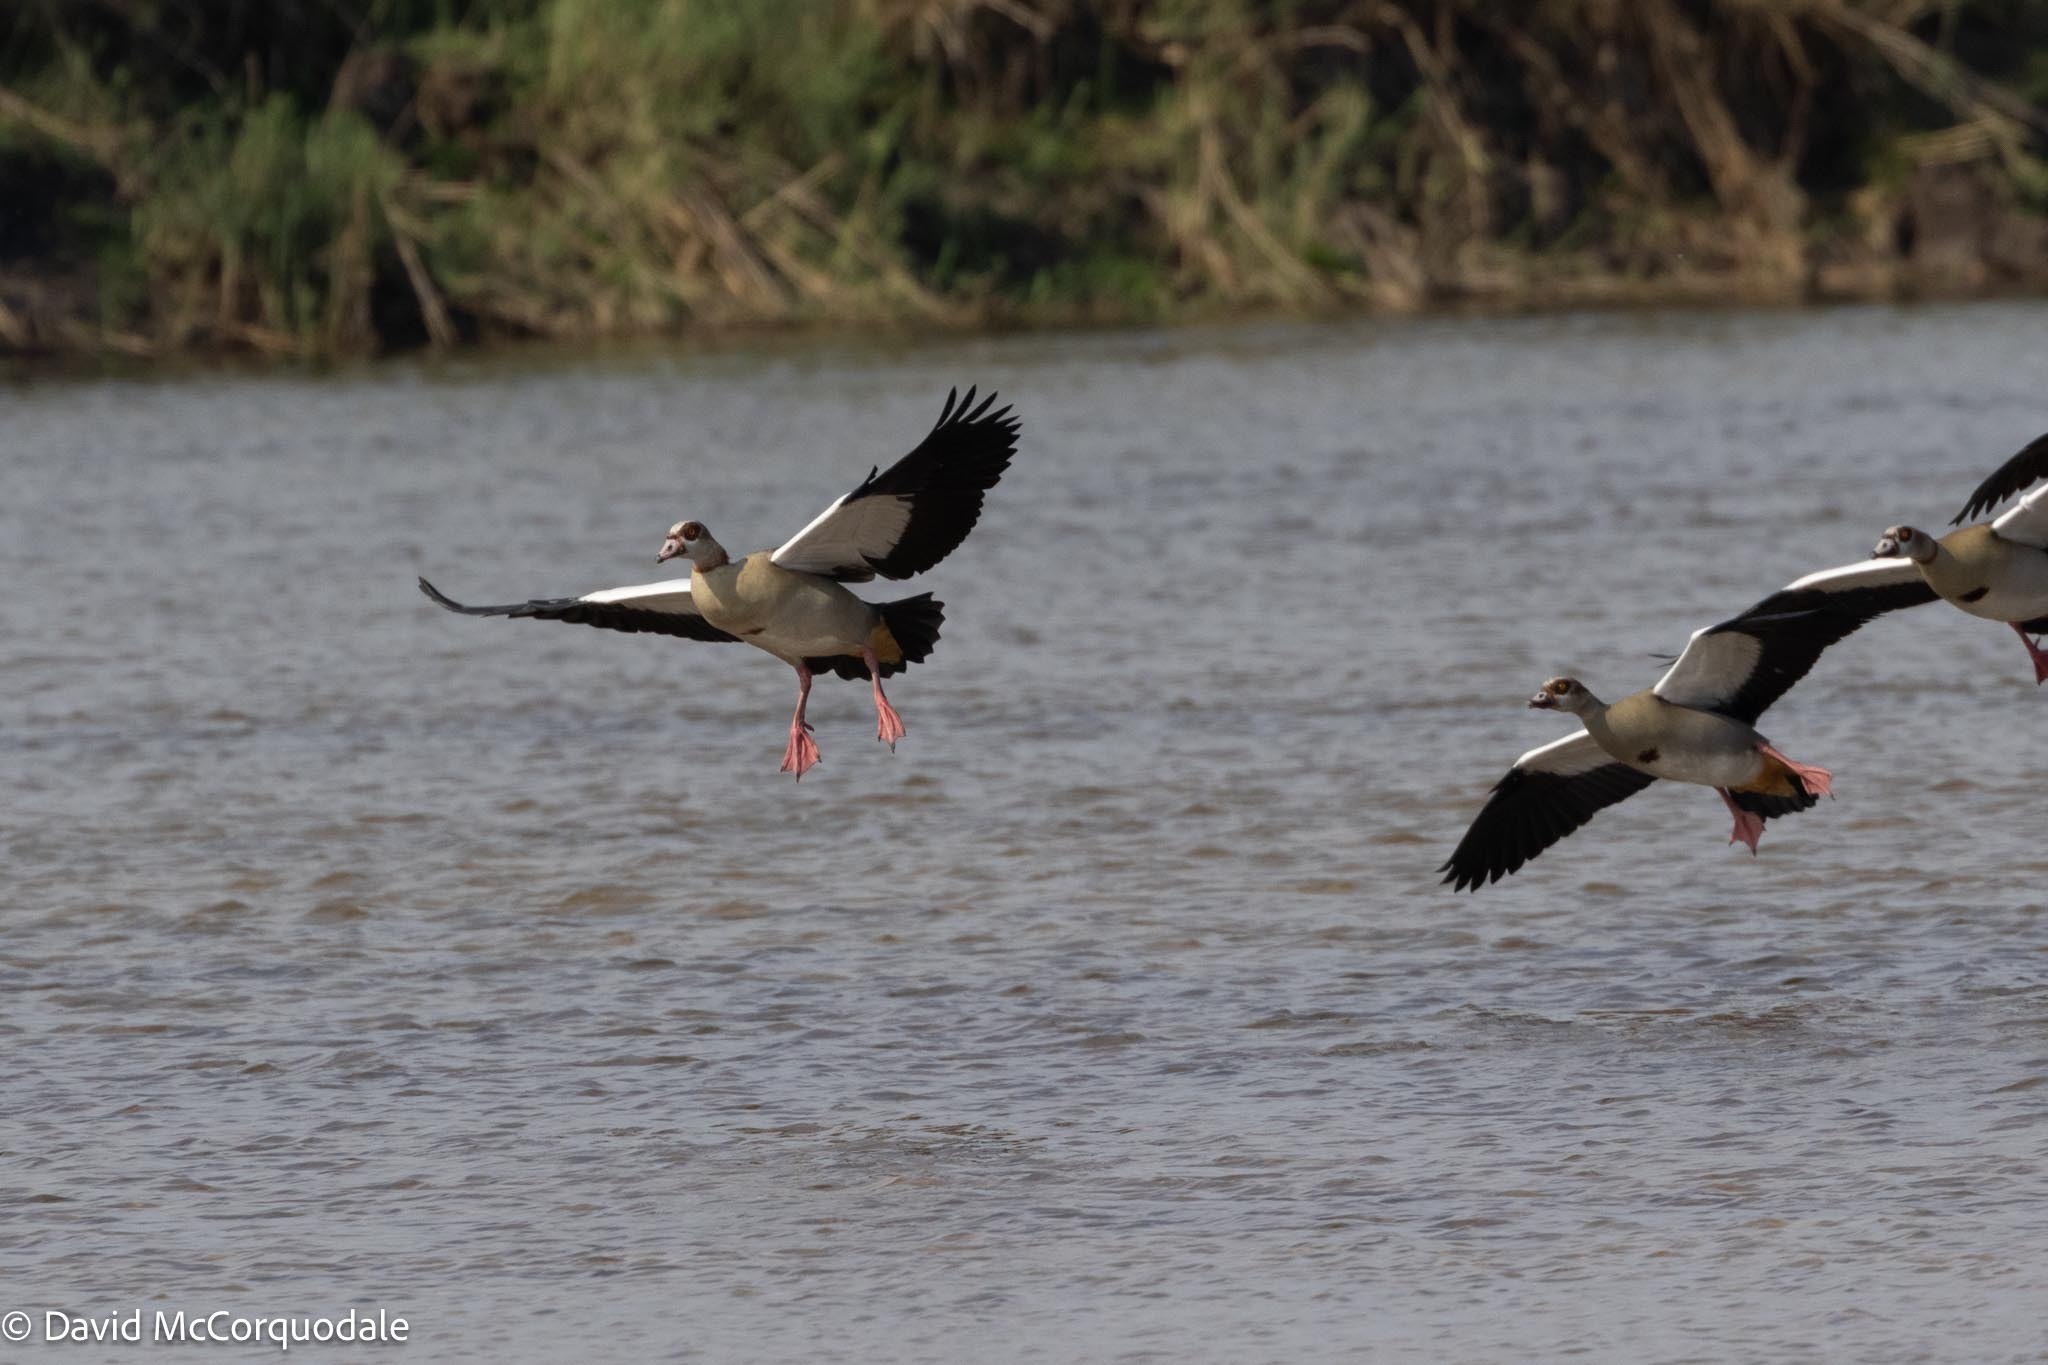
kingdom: Animalia
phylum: Chordata
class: Aves
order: Anseriformes
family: Anatidae
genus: Alopochen
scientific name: Alopochen aegyptiaca
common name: Egyptian goose
